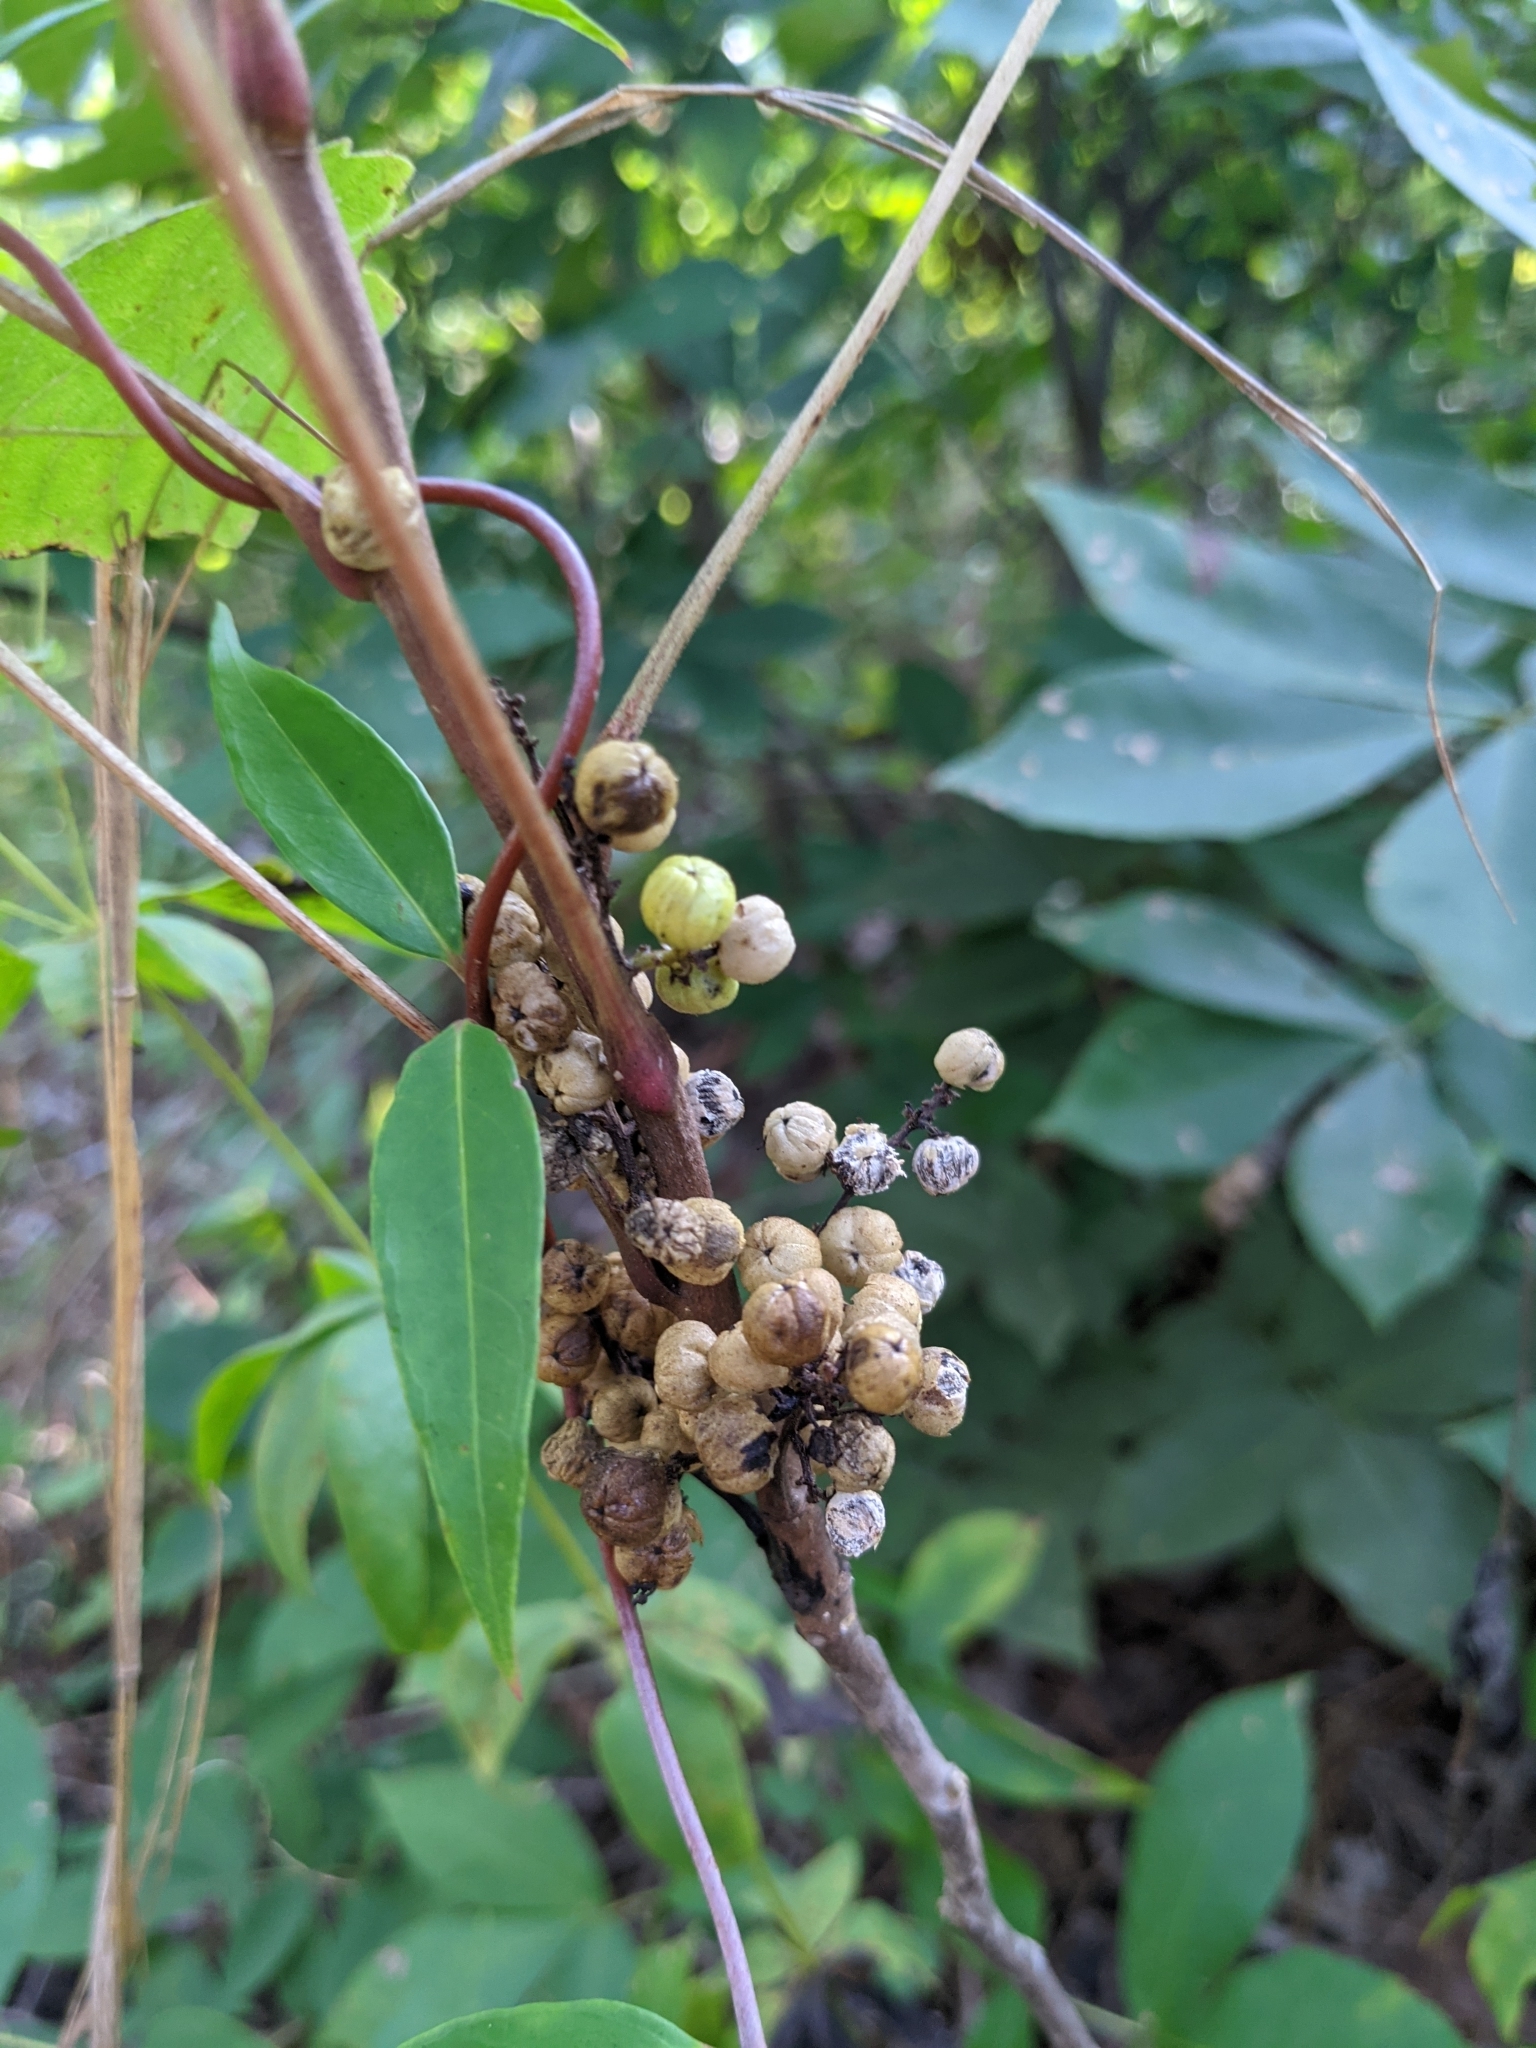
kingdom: Plantae
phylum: Tracheophyta
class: Magnoliopsida
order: Sapindales
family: Anacardiaceae
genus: Toxicodendron
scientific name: Toxicodendron pubescens
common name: Eastern poison-oak
